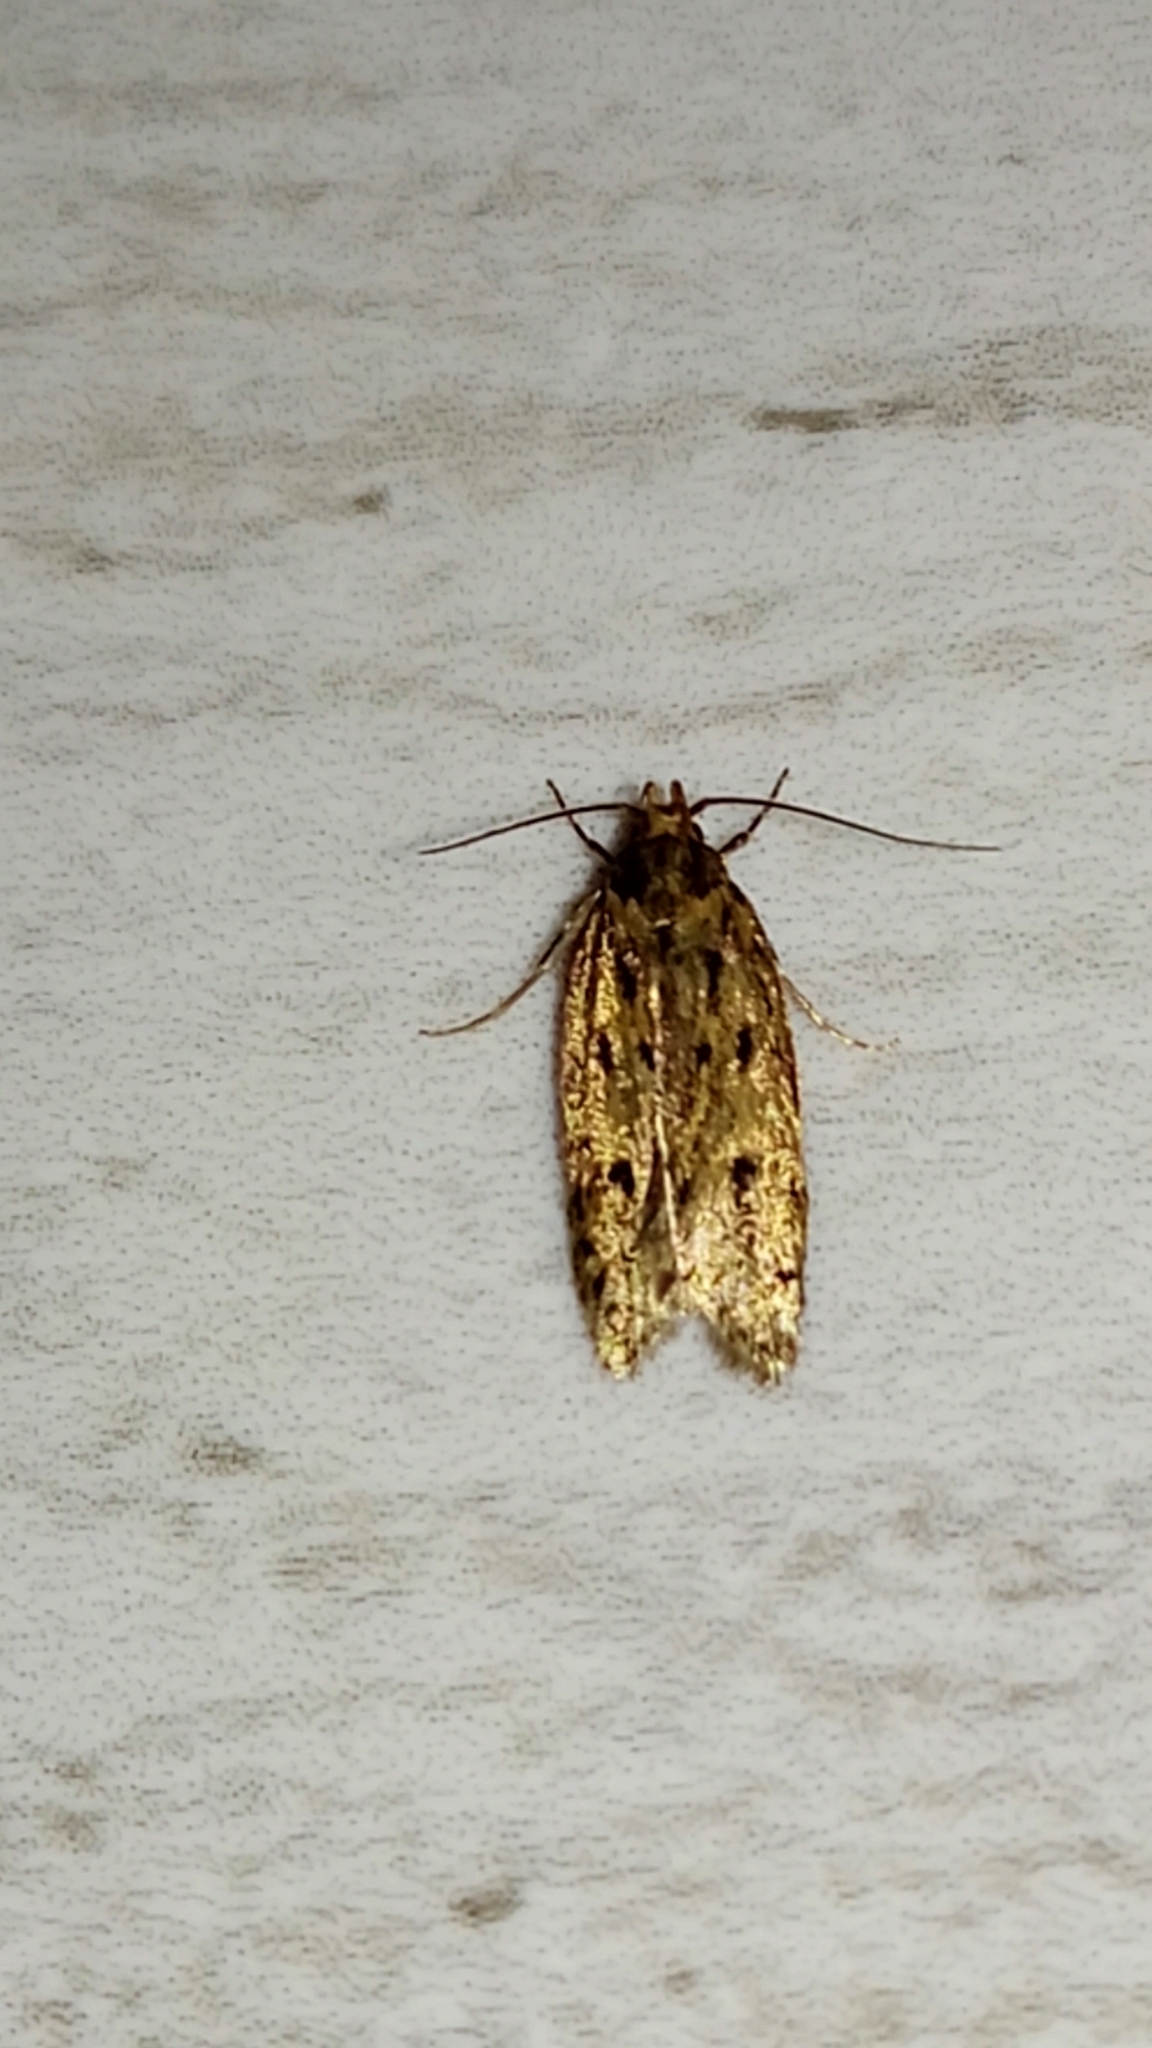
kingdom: Animalia
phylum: Arthropoda
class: Insecta
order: Lepidoptera
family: Oecophoridae
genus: Hofmannophila
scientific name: Hofmannophila pseudospretella
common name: Brown house moth
